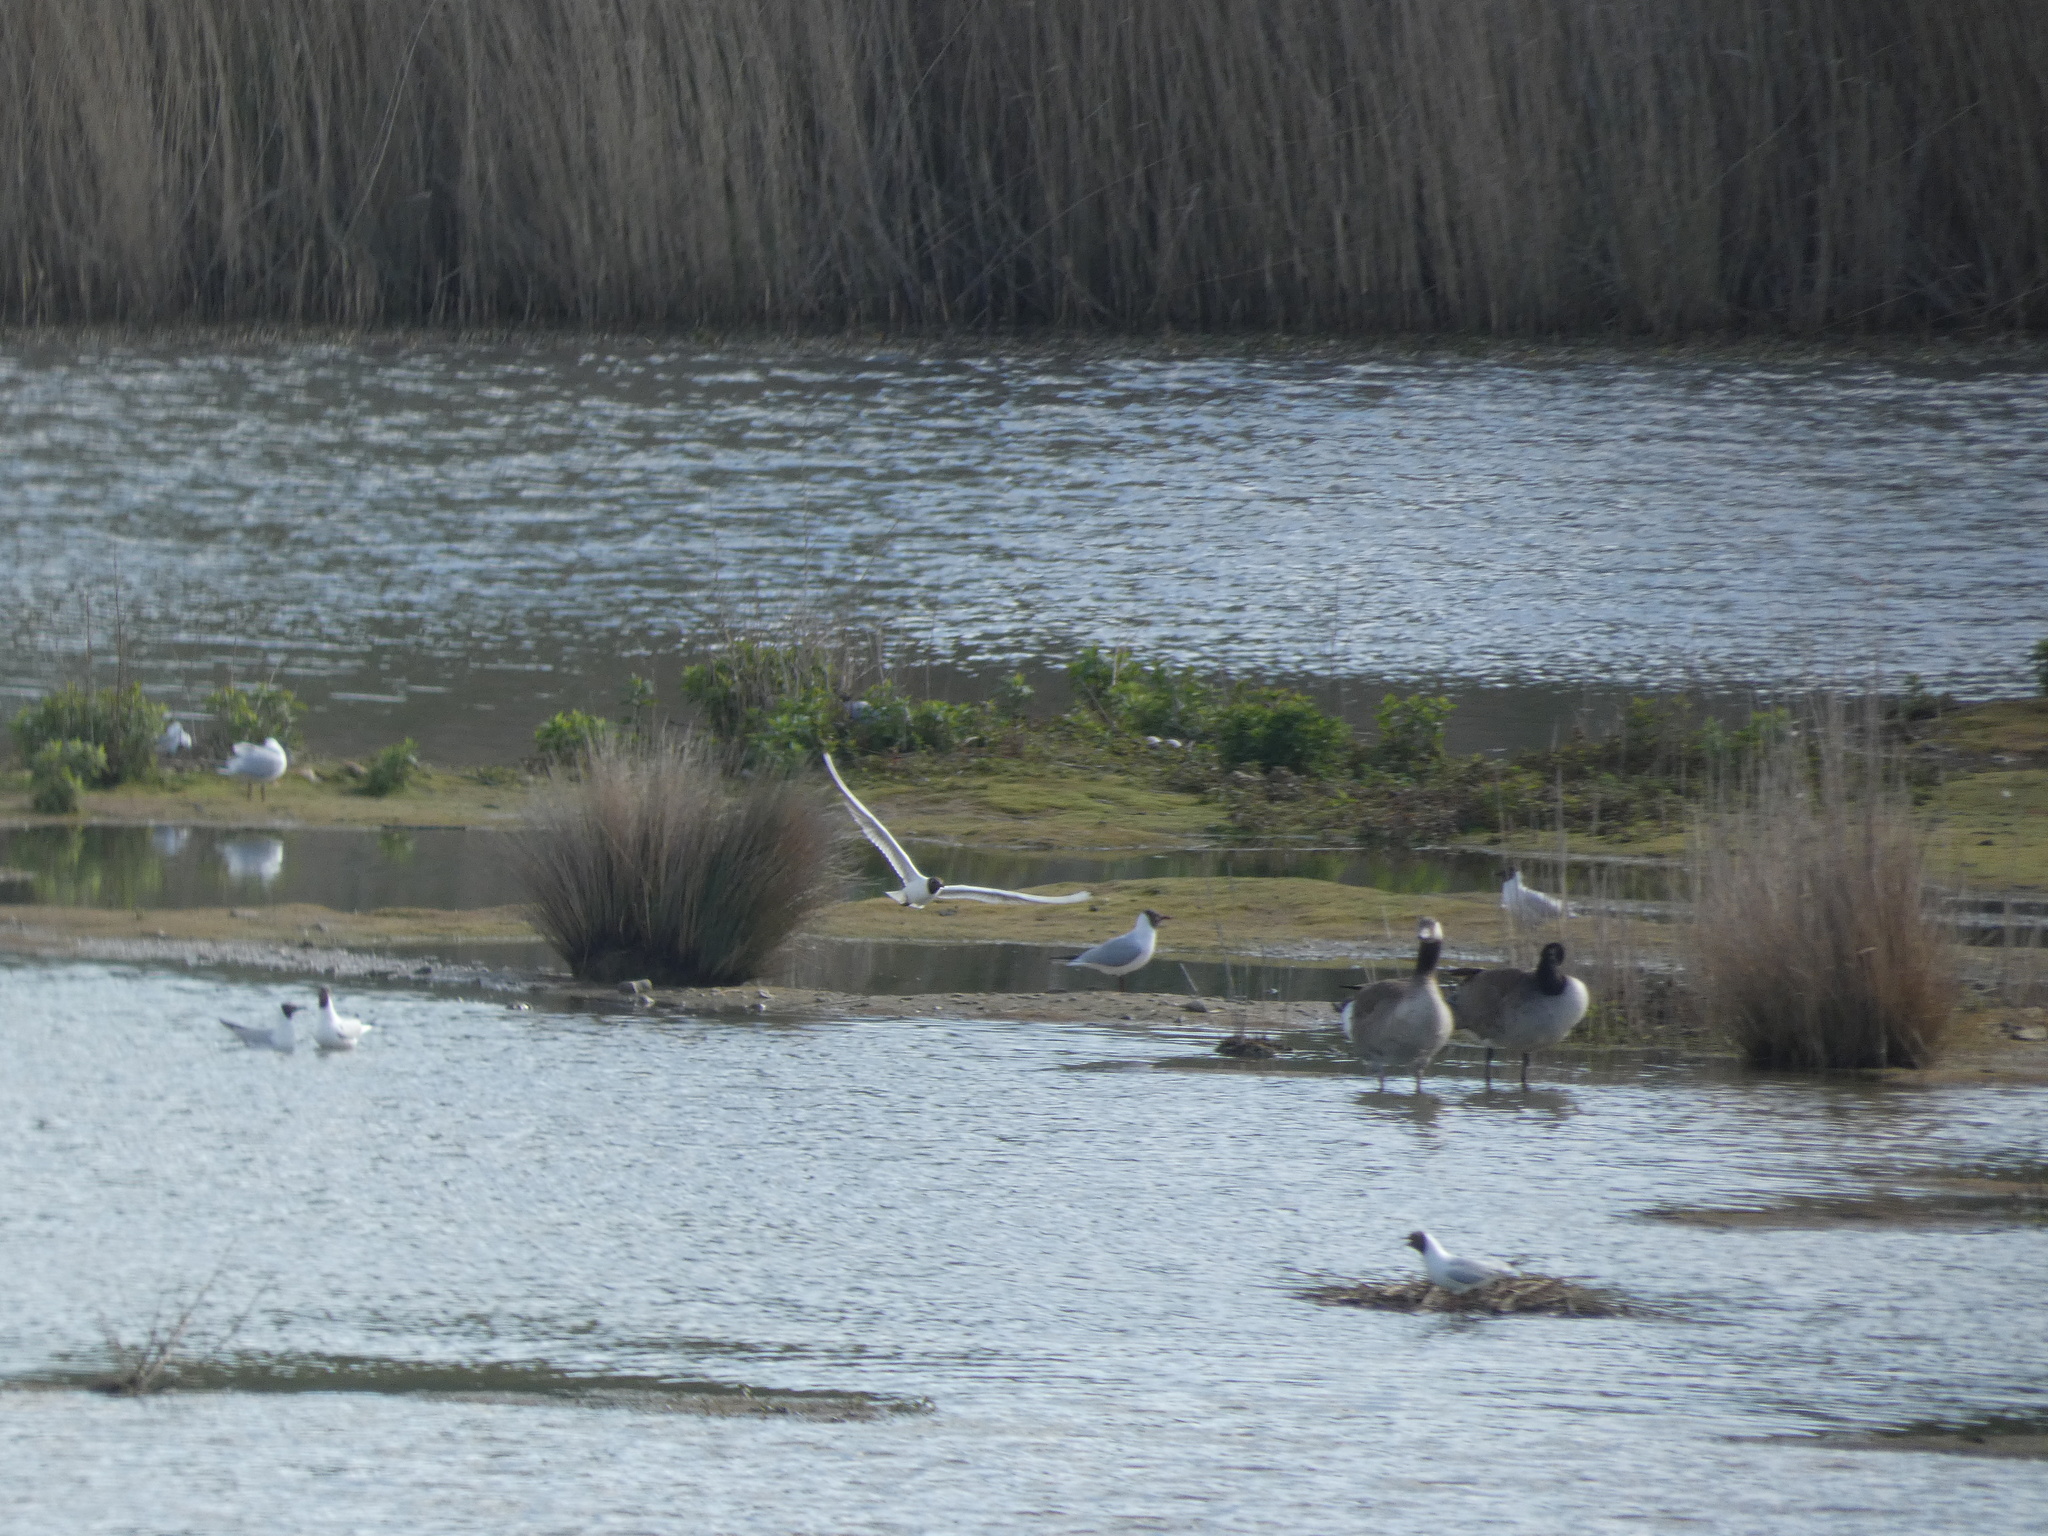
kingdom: Animalia
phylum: Chordata
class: Aves
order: Anseriformes
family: Anatidae
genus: Branta
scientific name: Branta canadensis
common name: Canada goose
